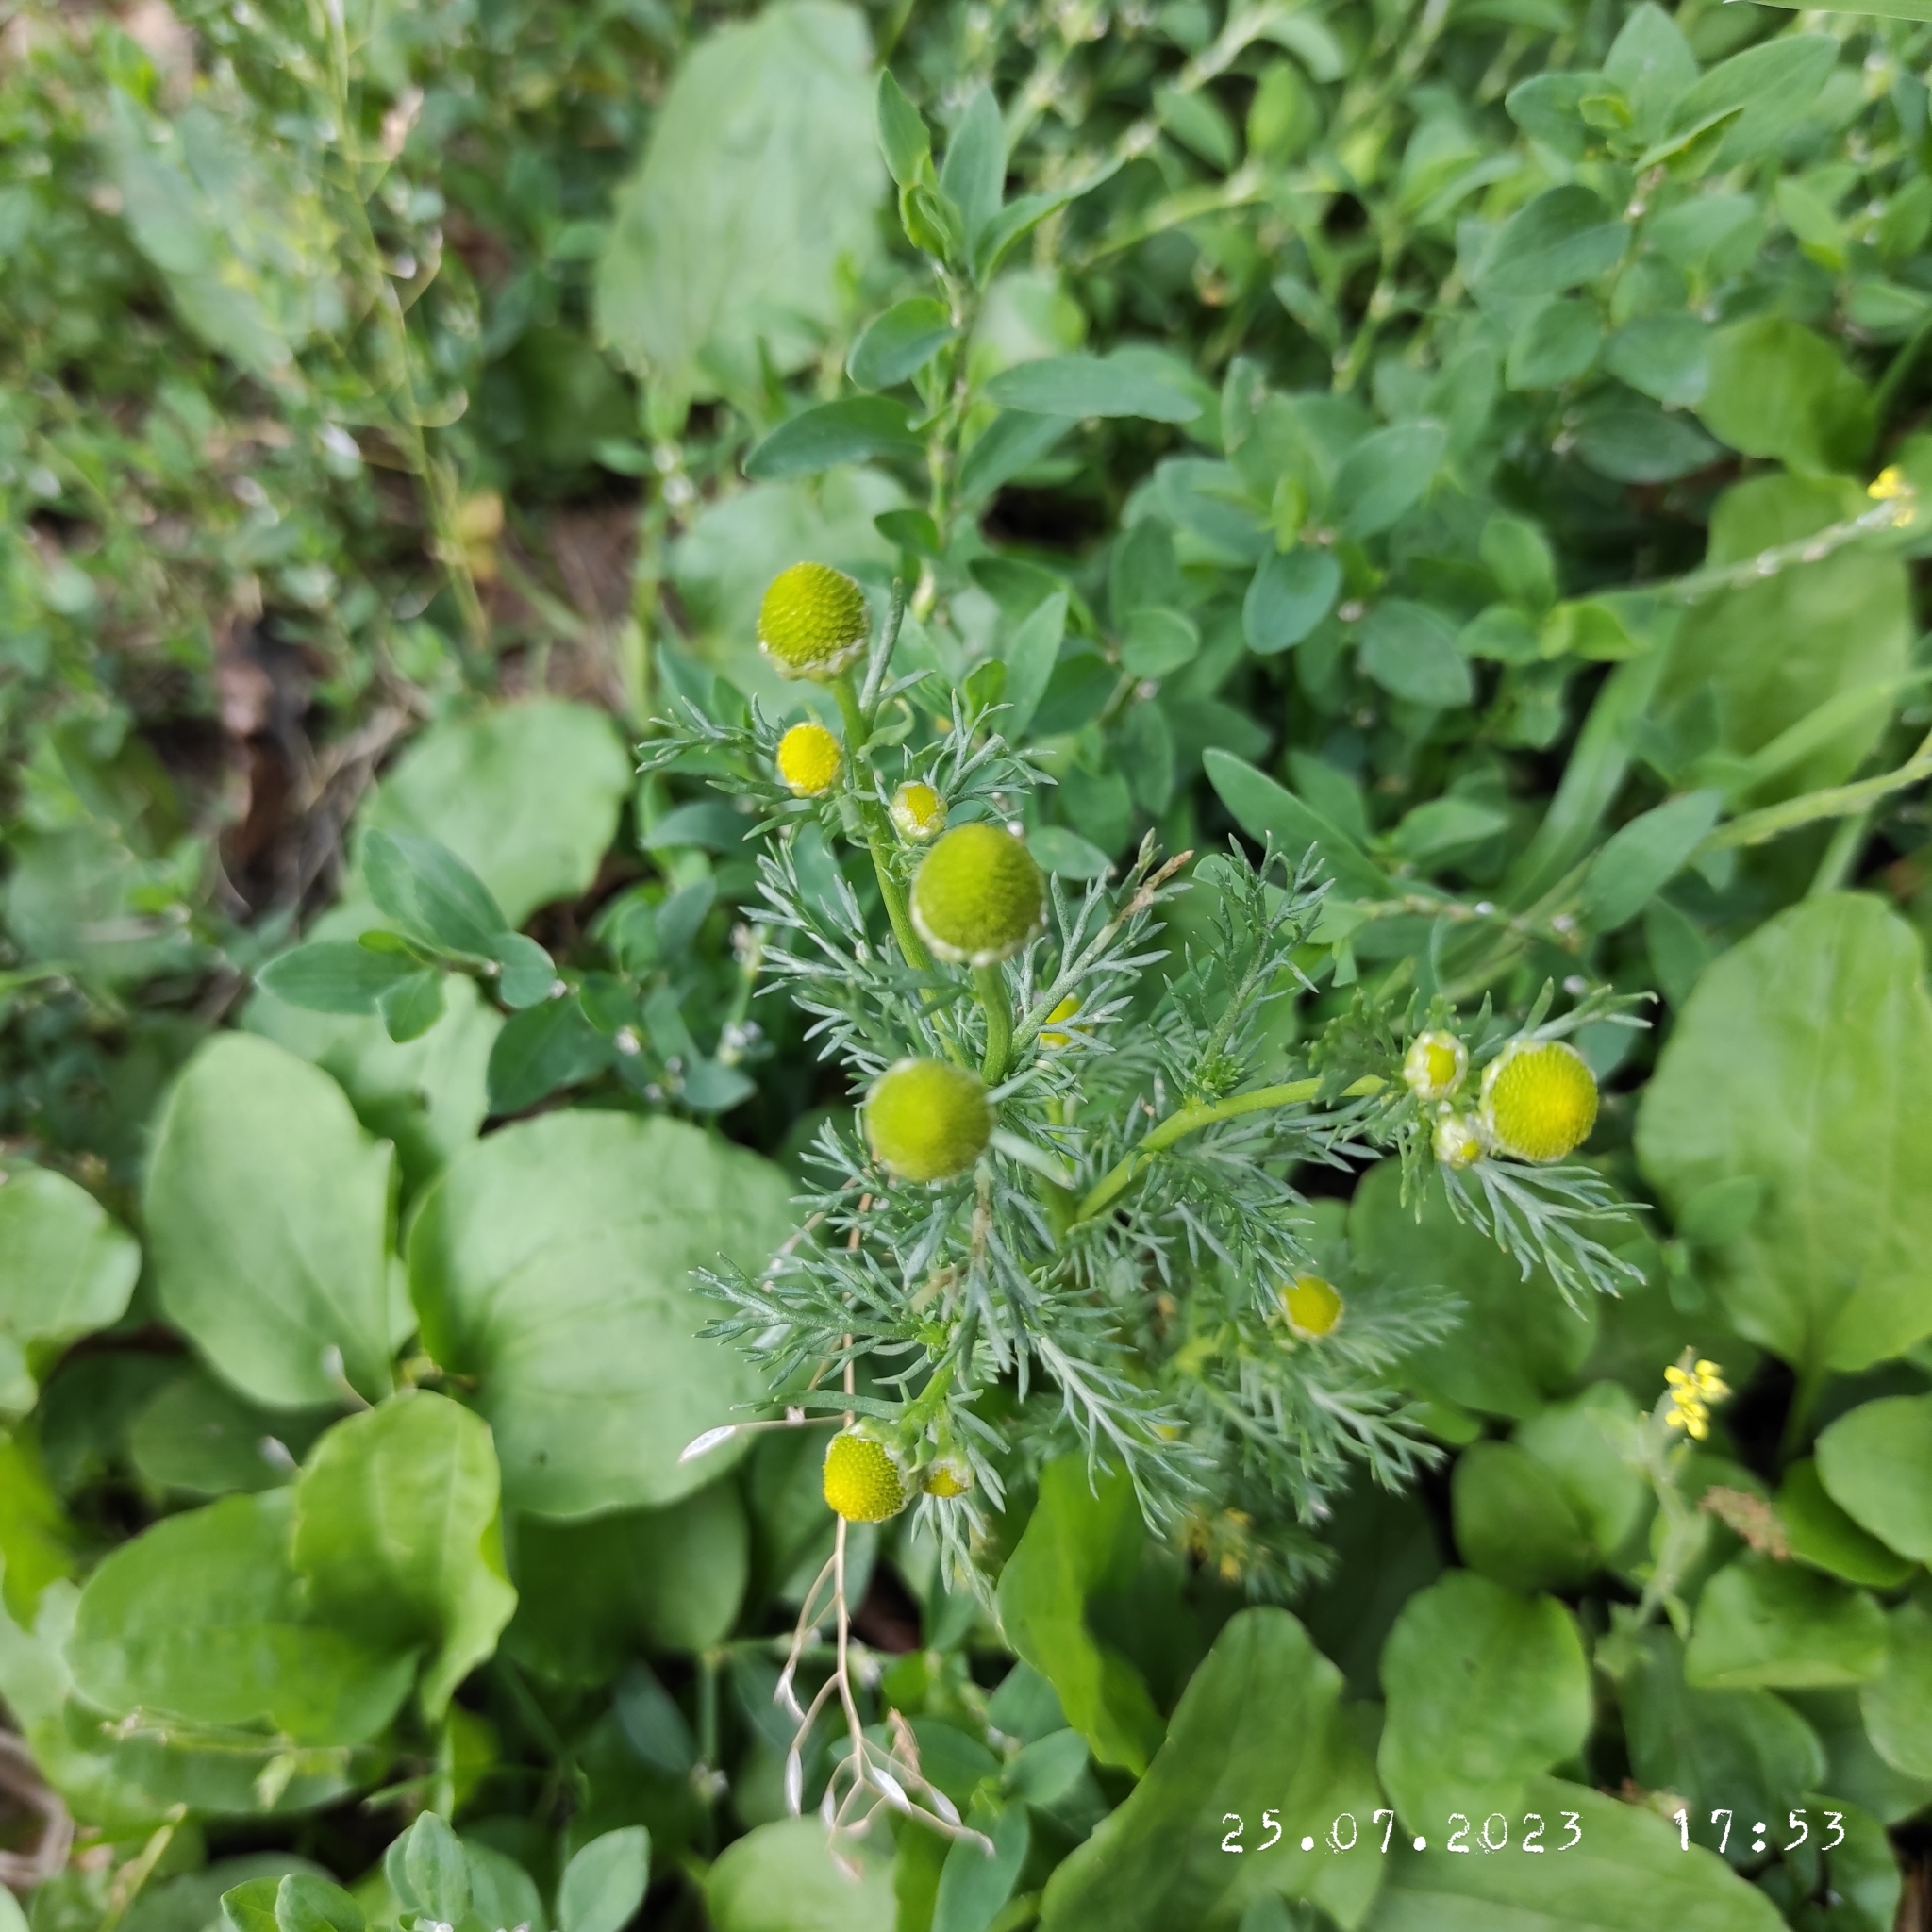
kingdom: Plantae
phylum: Tracheophyta
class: Magnoliopsida
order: Asterales
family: Asteraceae
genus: Matricaria
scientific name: Matricaria discoidea
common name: Disc mayweed
